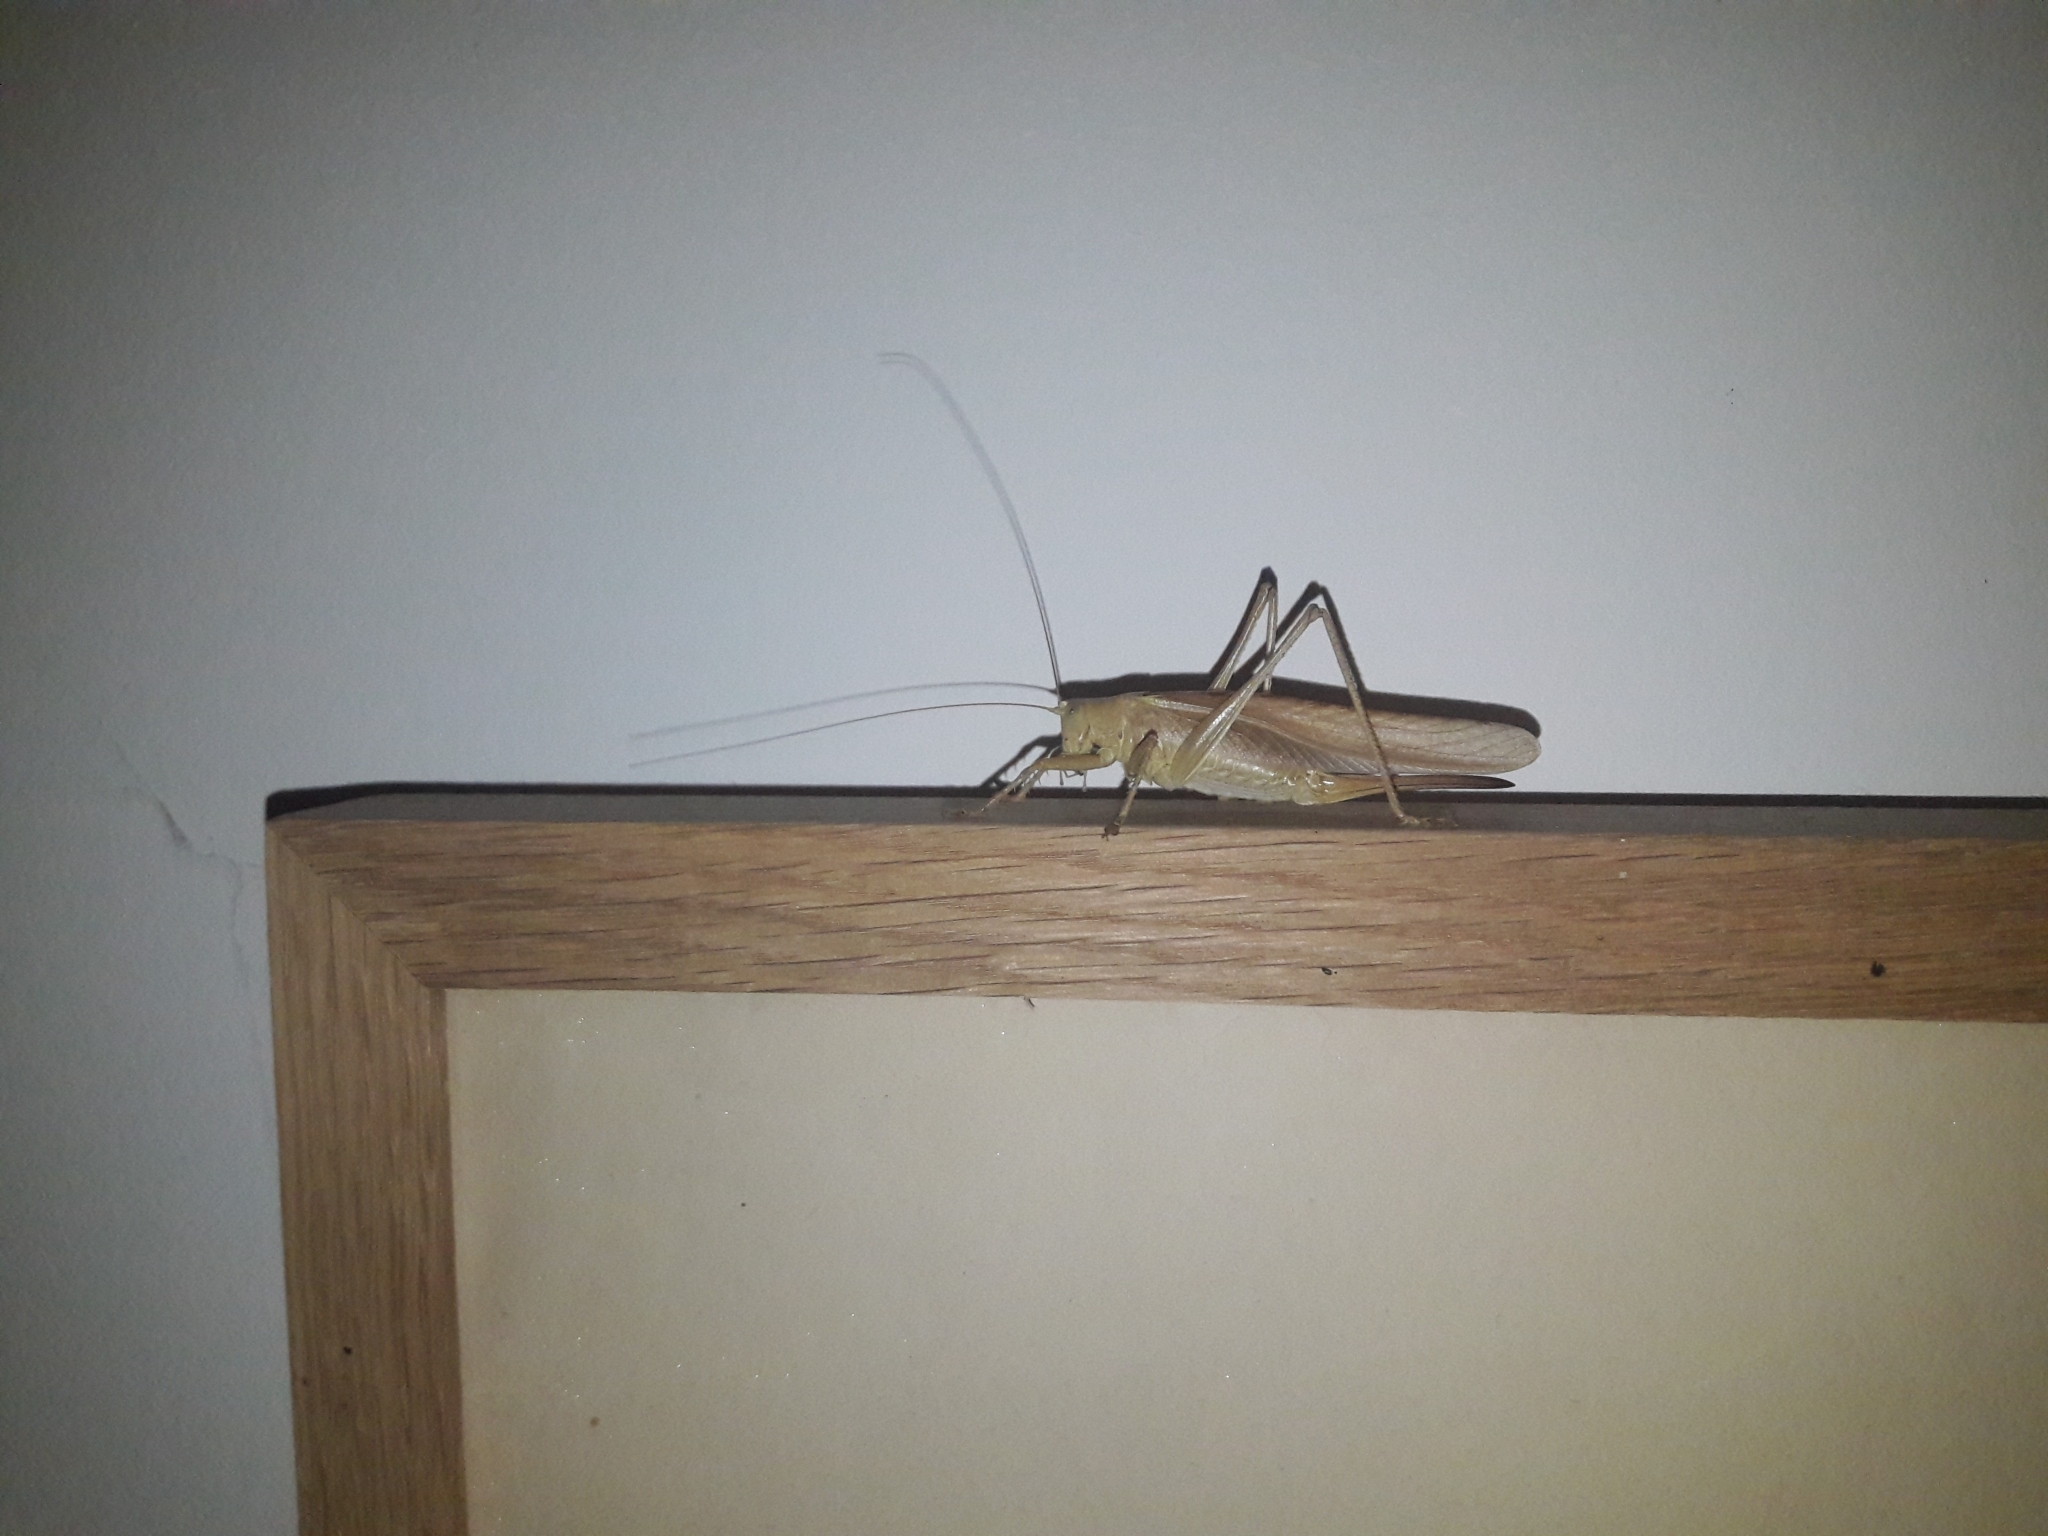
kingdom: Animalia
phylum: Arthropoda
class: Insecta
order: Orthoptera
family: Tettigoniidae
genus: Tettigonia
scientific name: Tettigonia viridissima
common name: Great green bush-cricket
